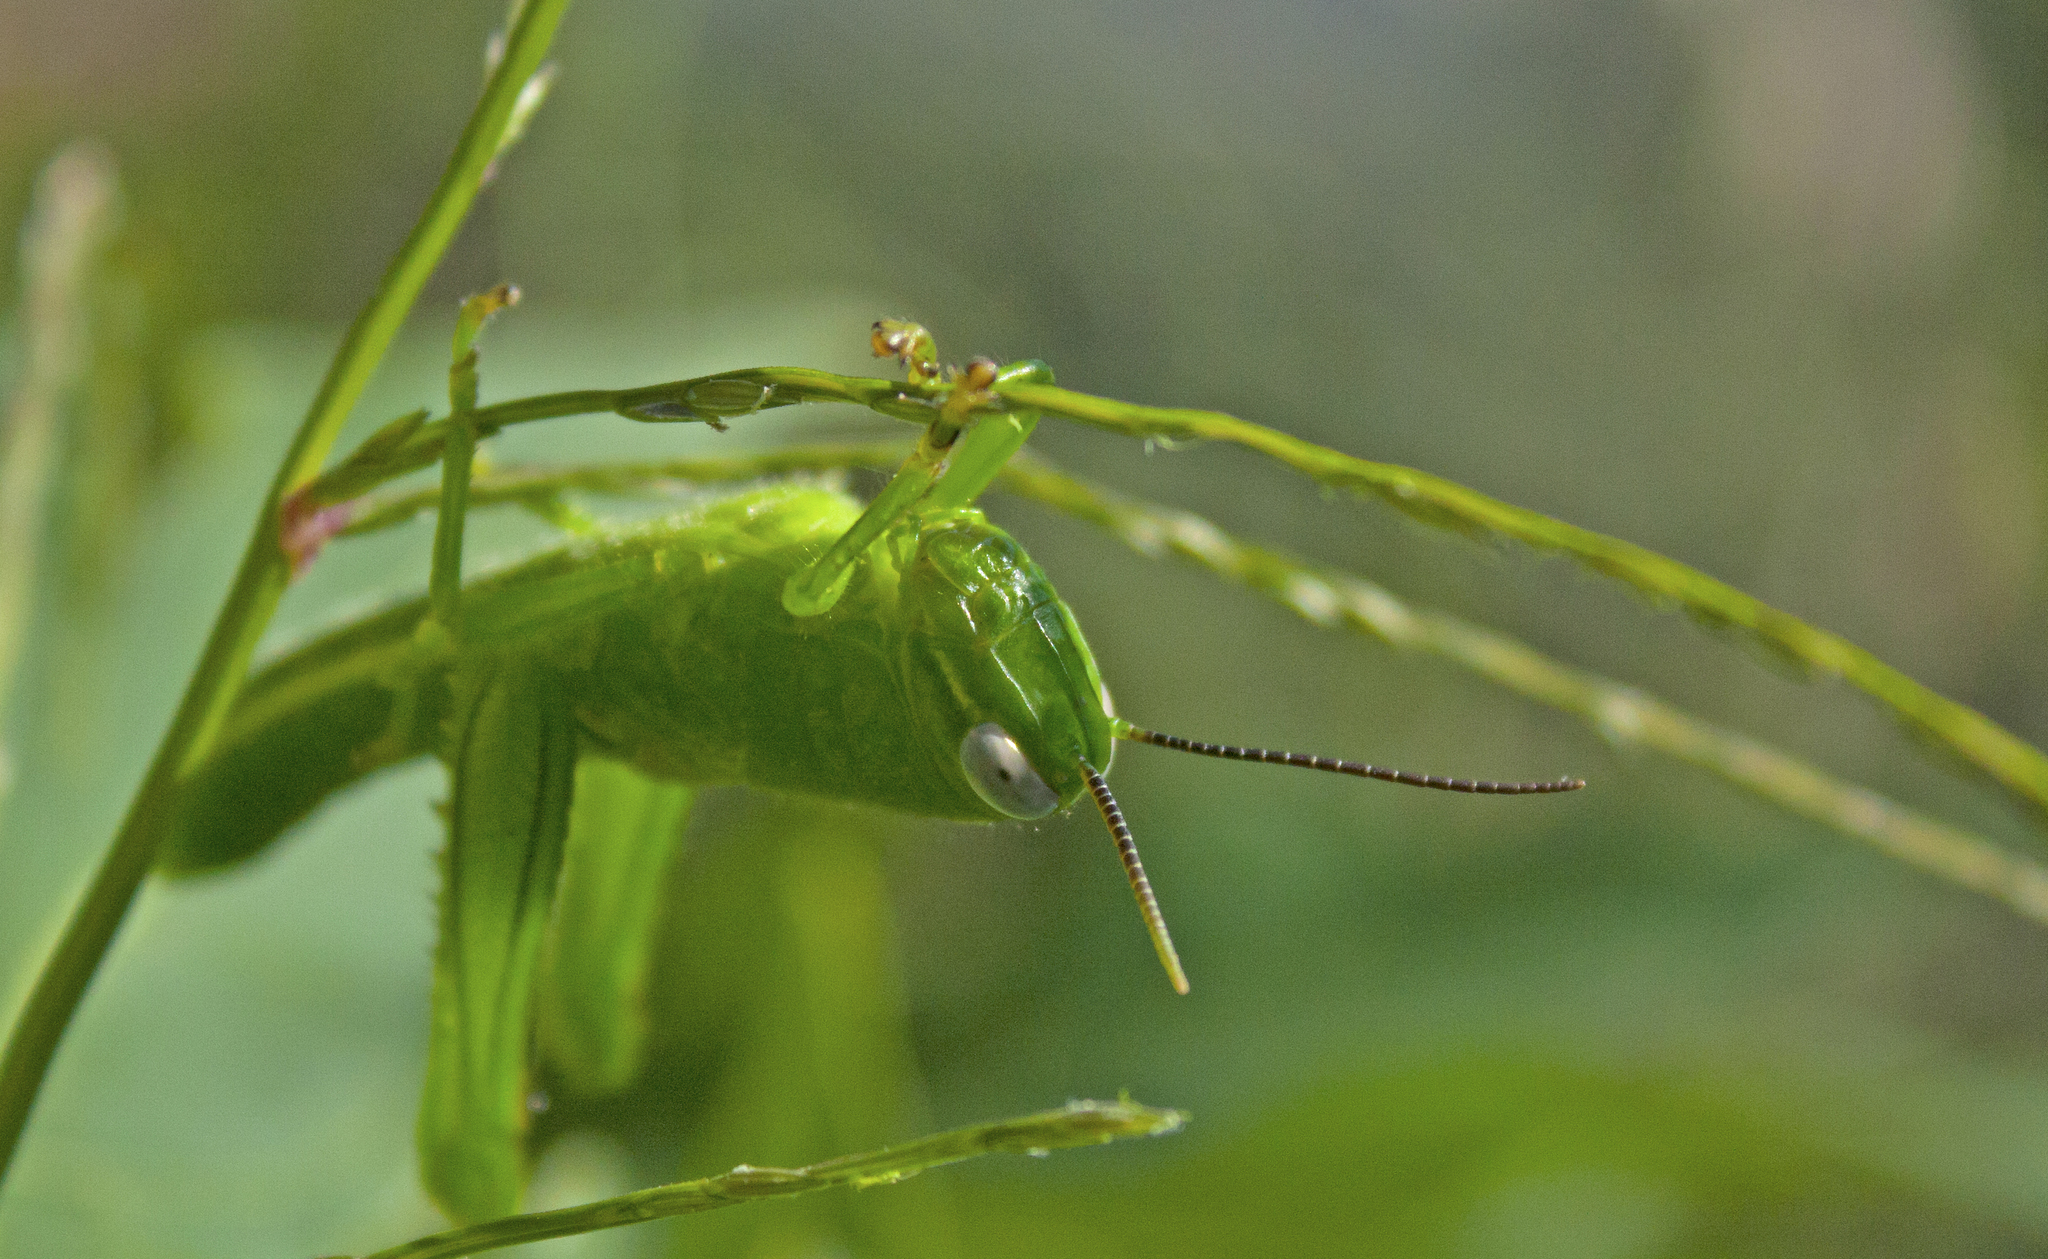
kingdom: Animalia
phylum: Arthropoda
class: Insecta
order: Orthoptera
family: Acrididae
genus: Valanga
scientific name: Valanga irregularis
